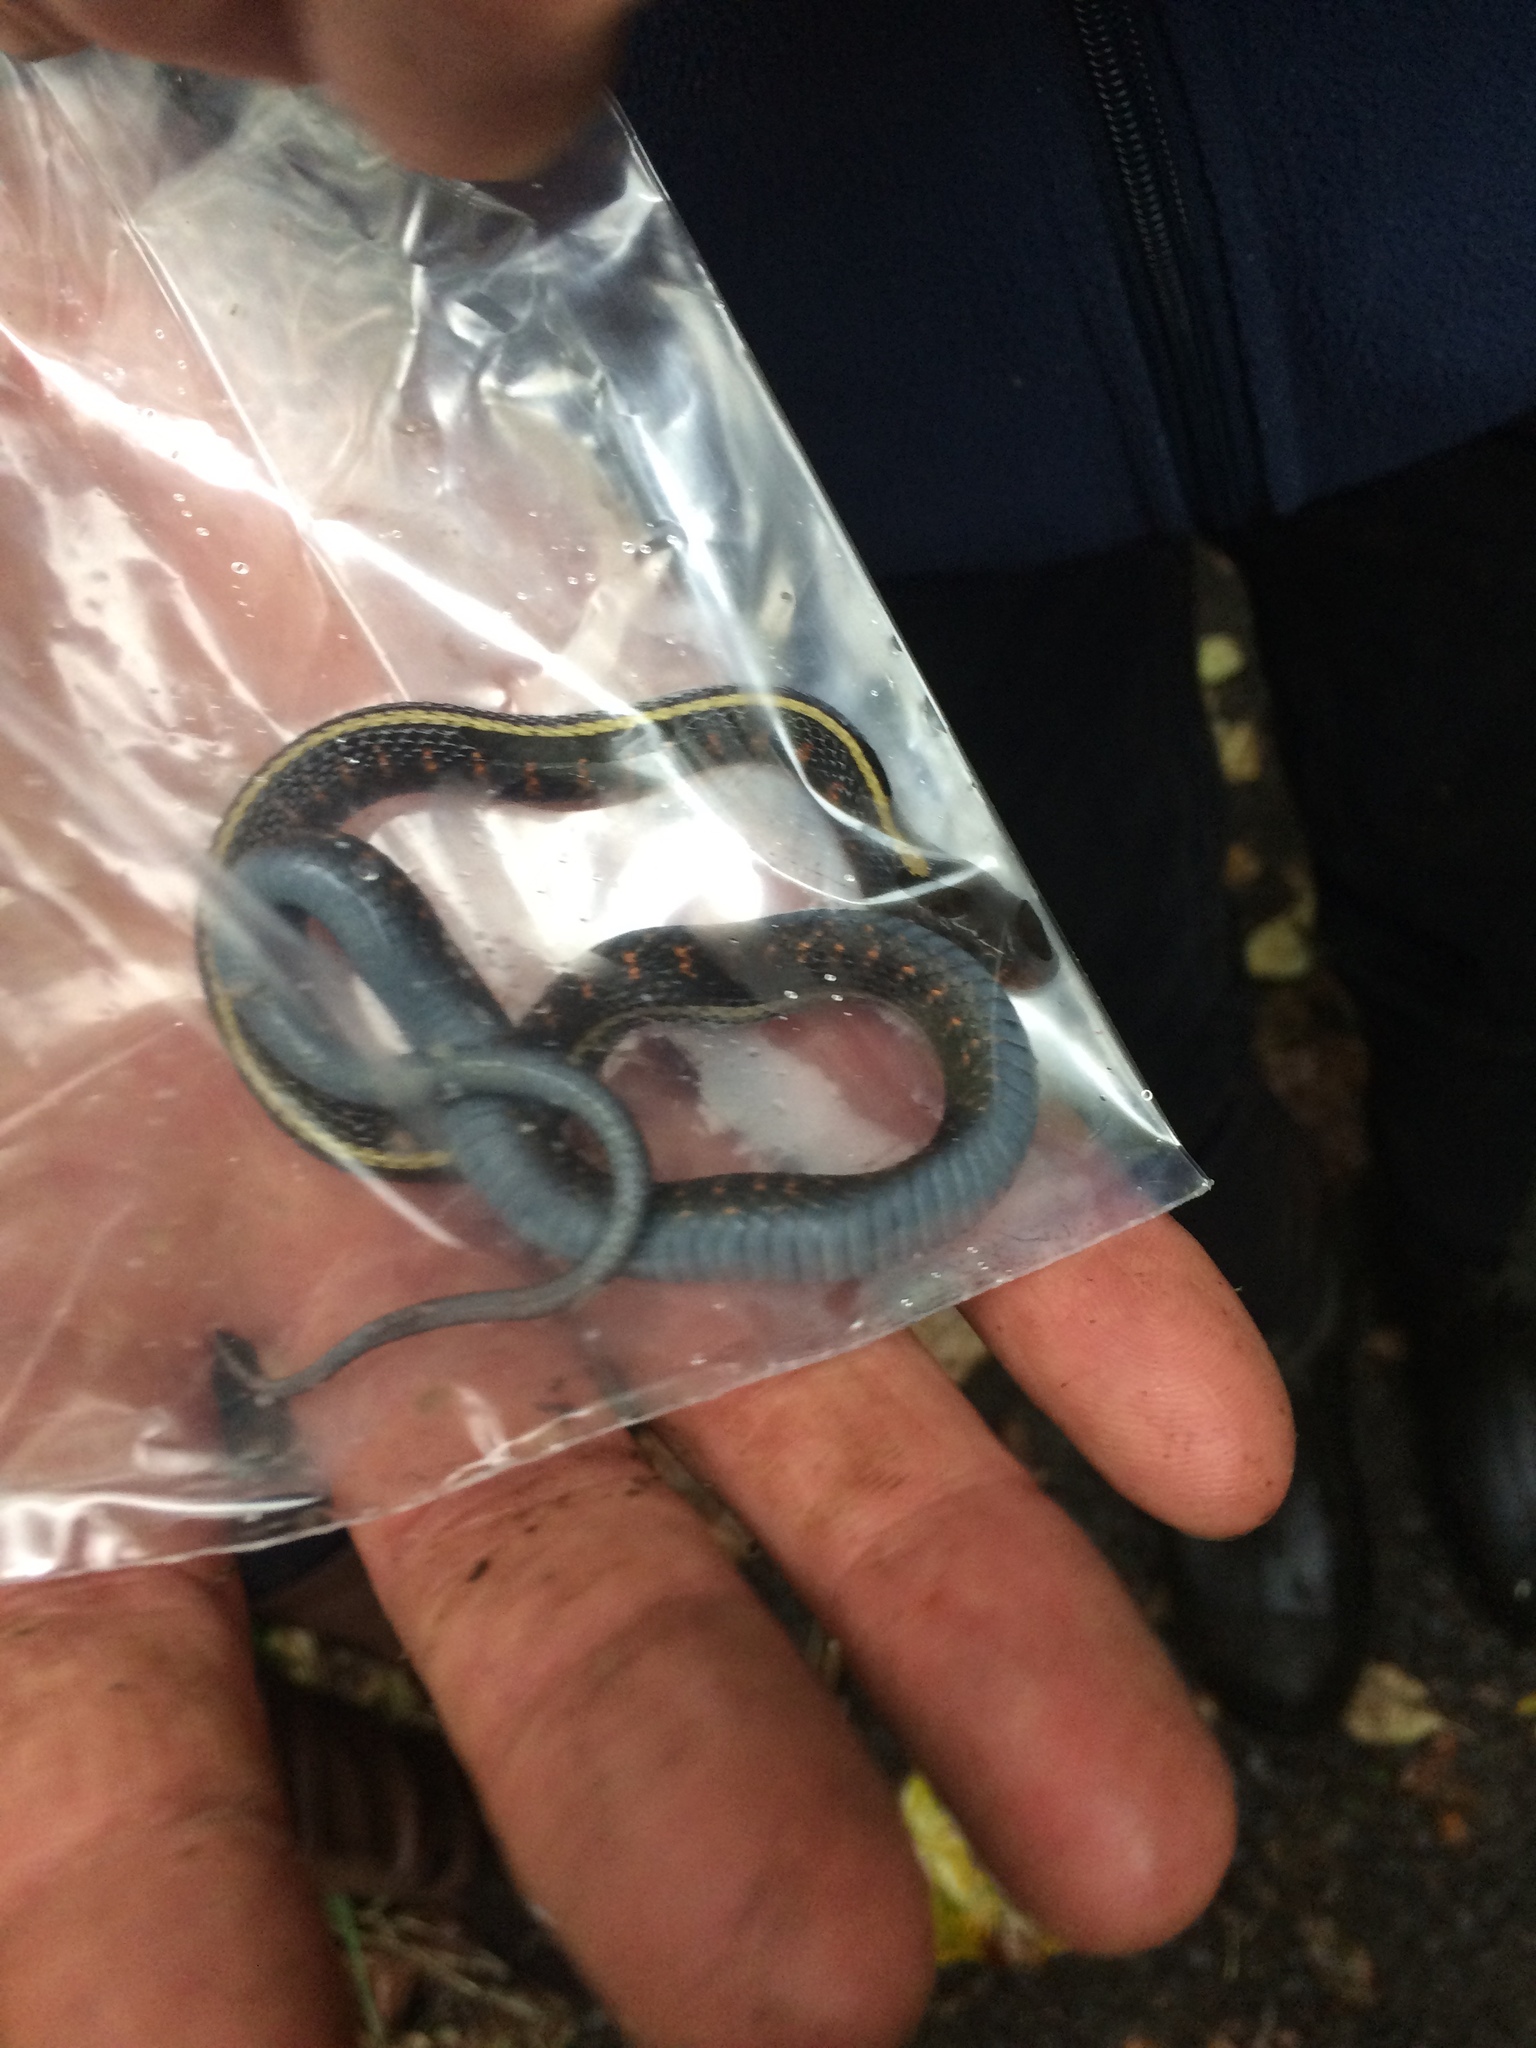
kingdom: Animalia
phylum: Chordata
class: Squamata
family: Colubridae
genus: Thamnophis
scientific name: Thamnophis sirtalis
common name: Common garter snake
